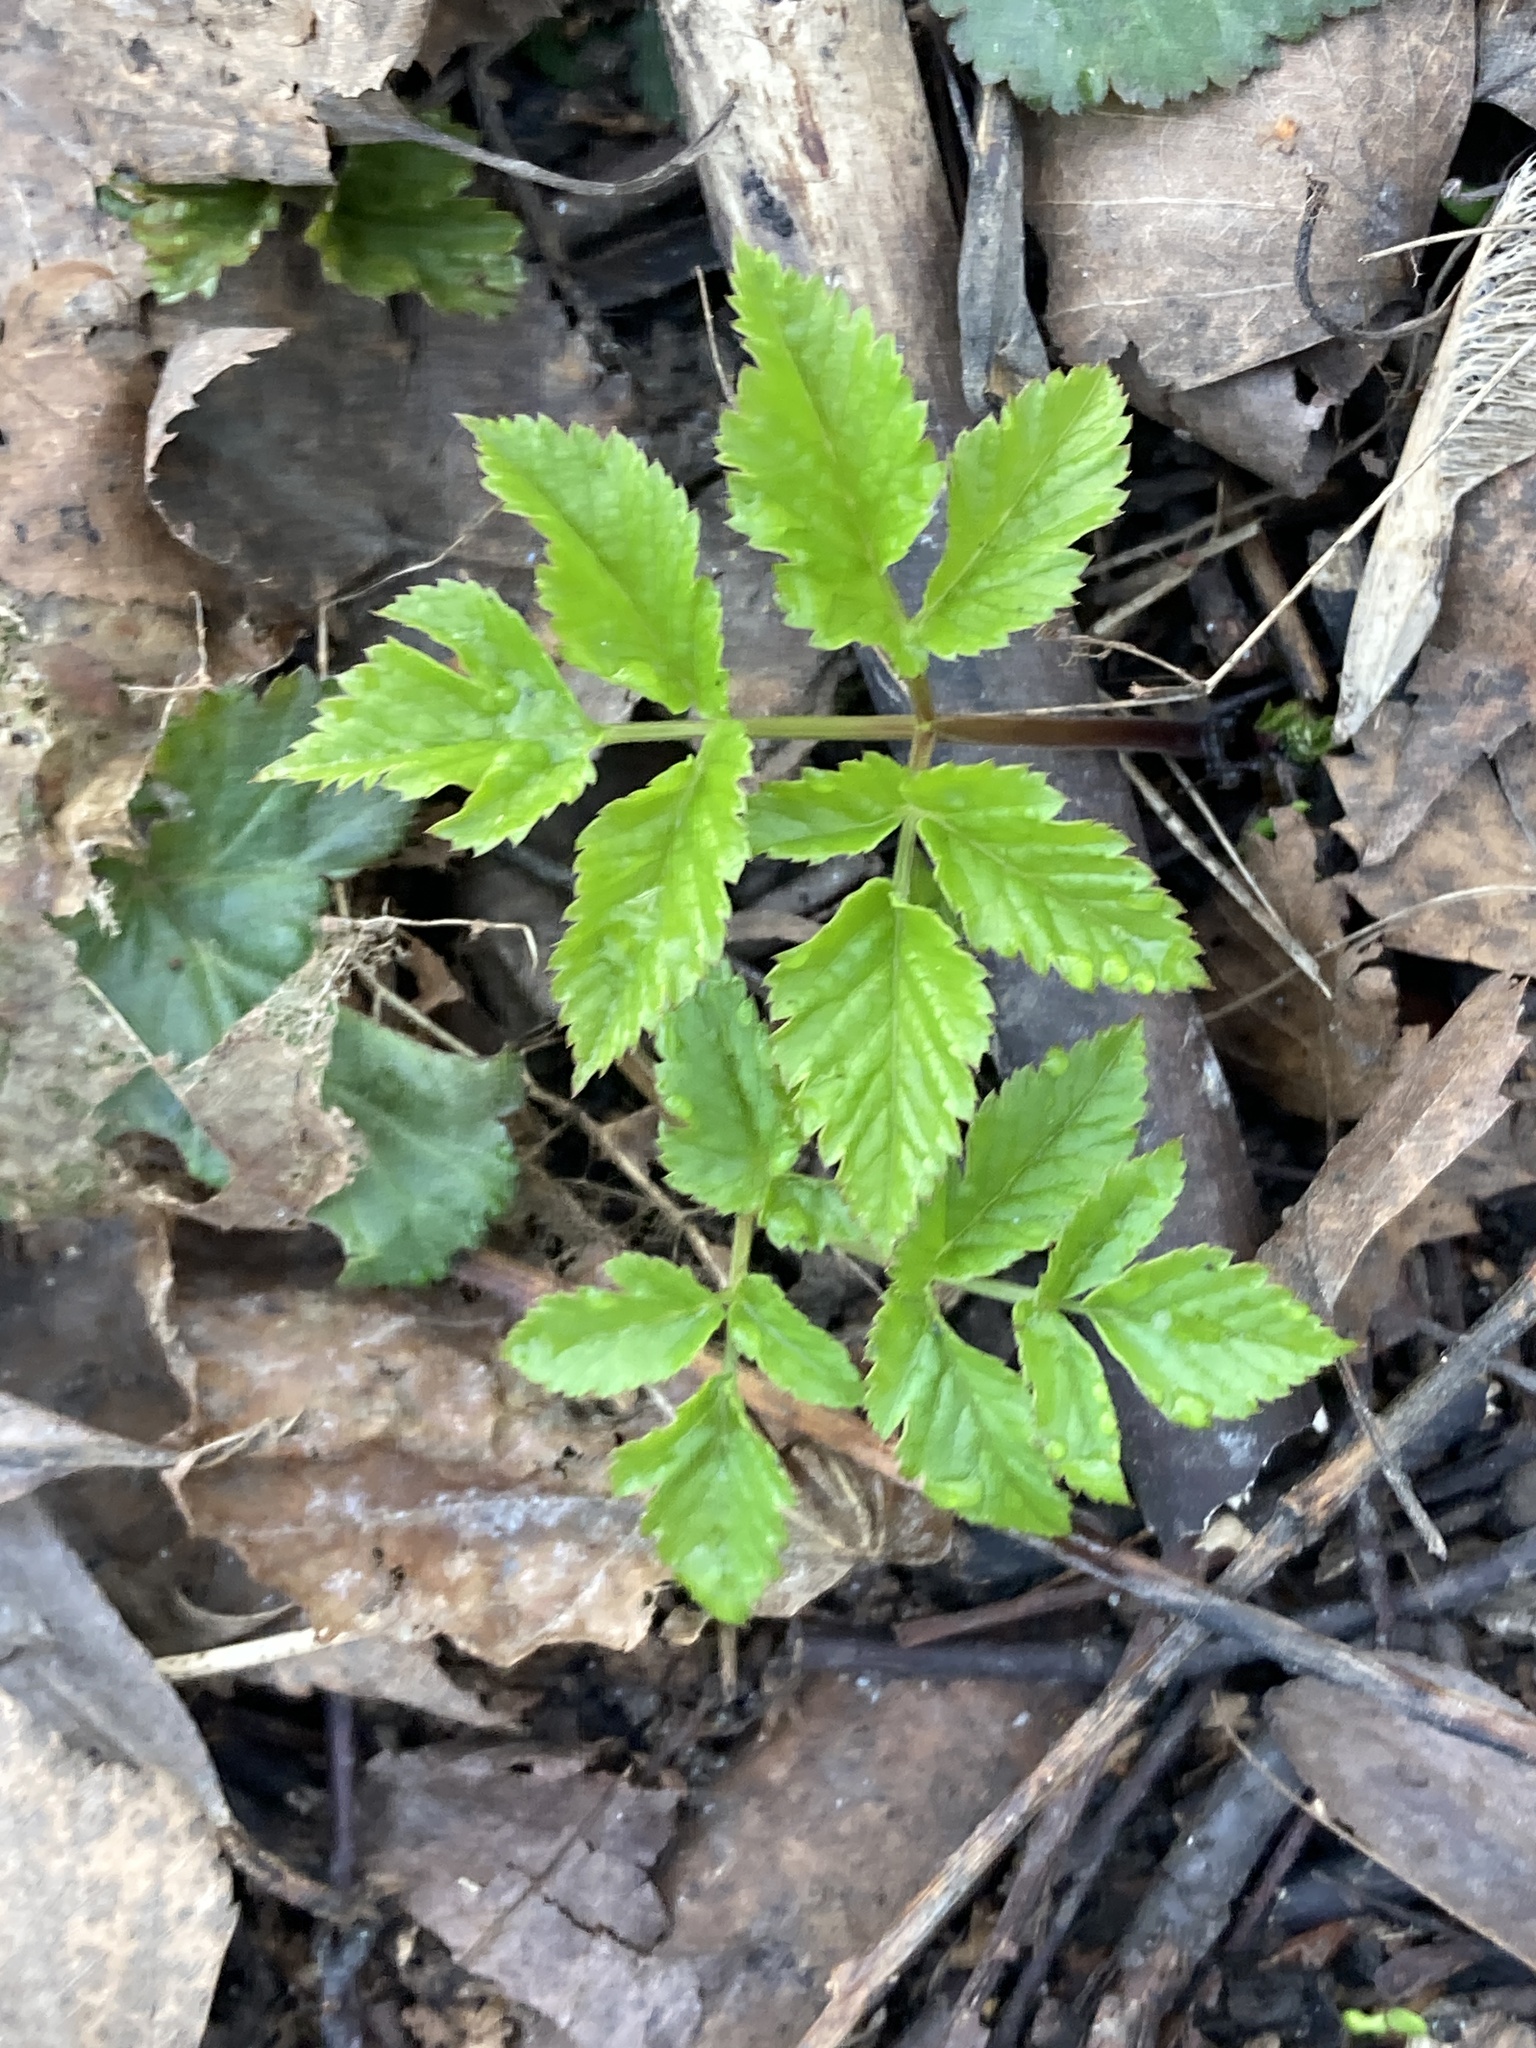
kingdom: Plantae
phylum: Tracheophyta
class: Magnoliopsida
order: Apiales
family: Apiaceae
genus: Aegopodium
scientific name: Aegopodium podagraria
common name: Ground-elder
